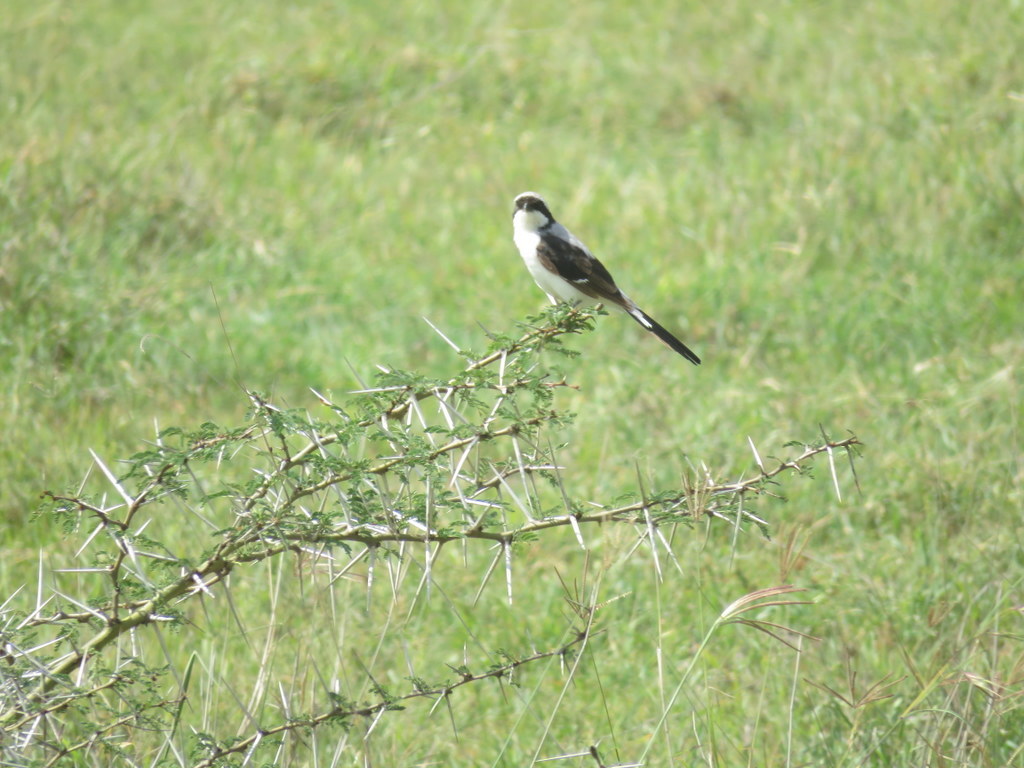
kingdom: Animalia
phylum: Chordata
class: Aves
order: Passeriformes
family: Laniidae
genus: Lanius
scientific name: Lanius excubitoroides
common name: Grey-backed fiscal
